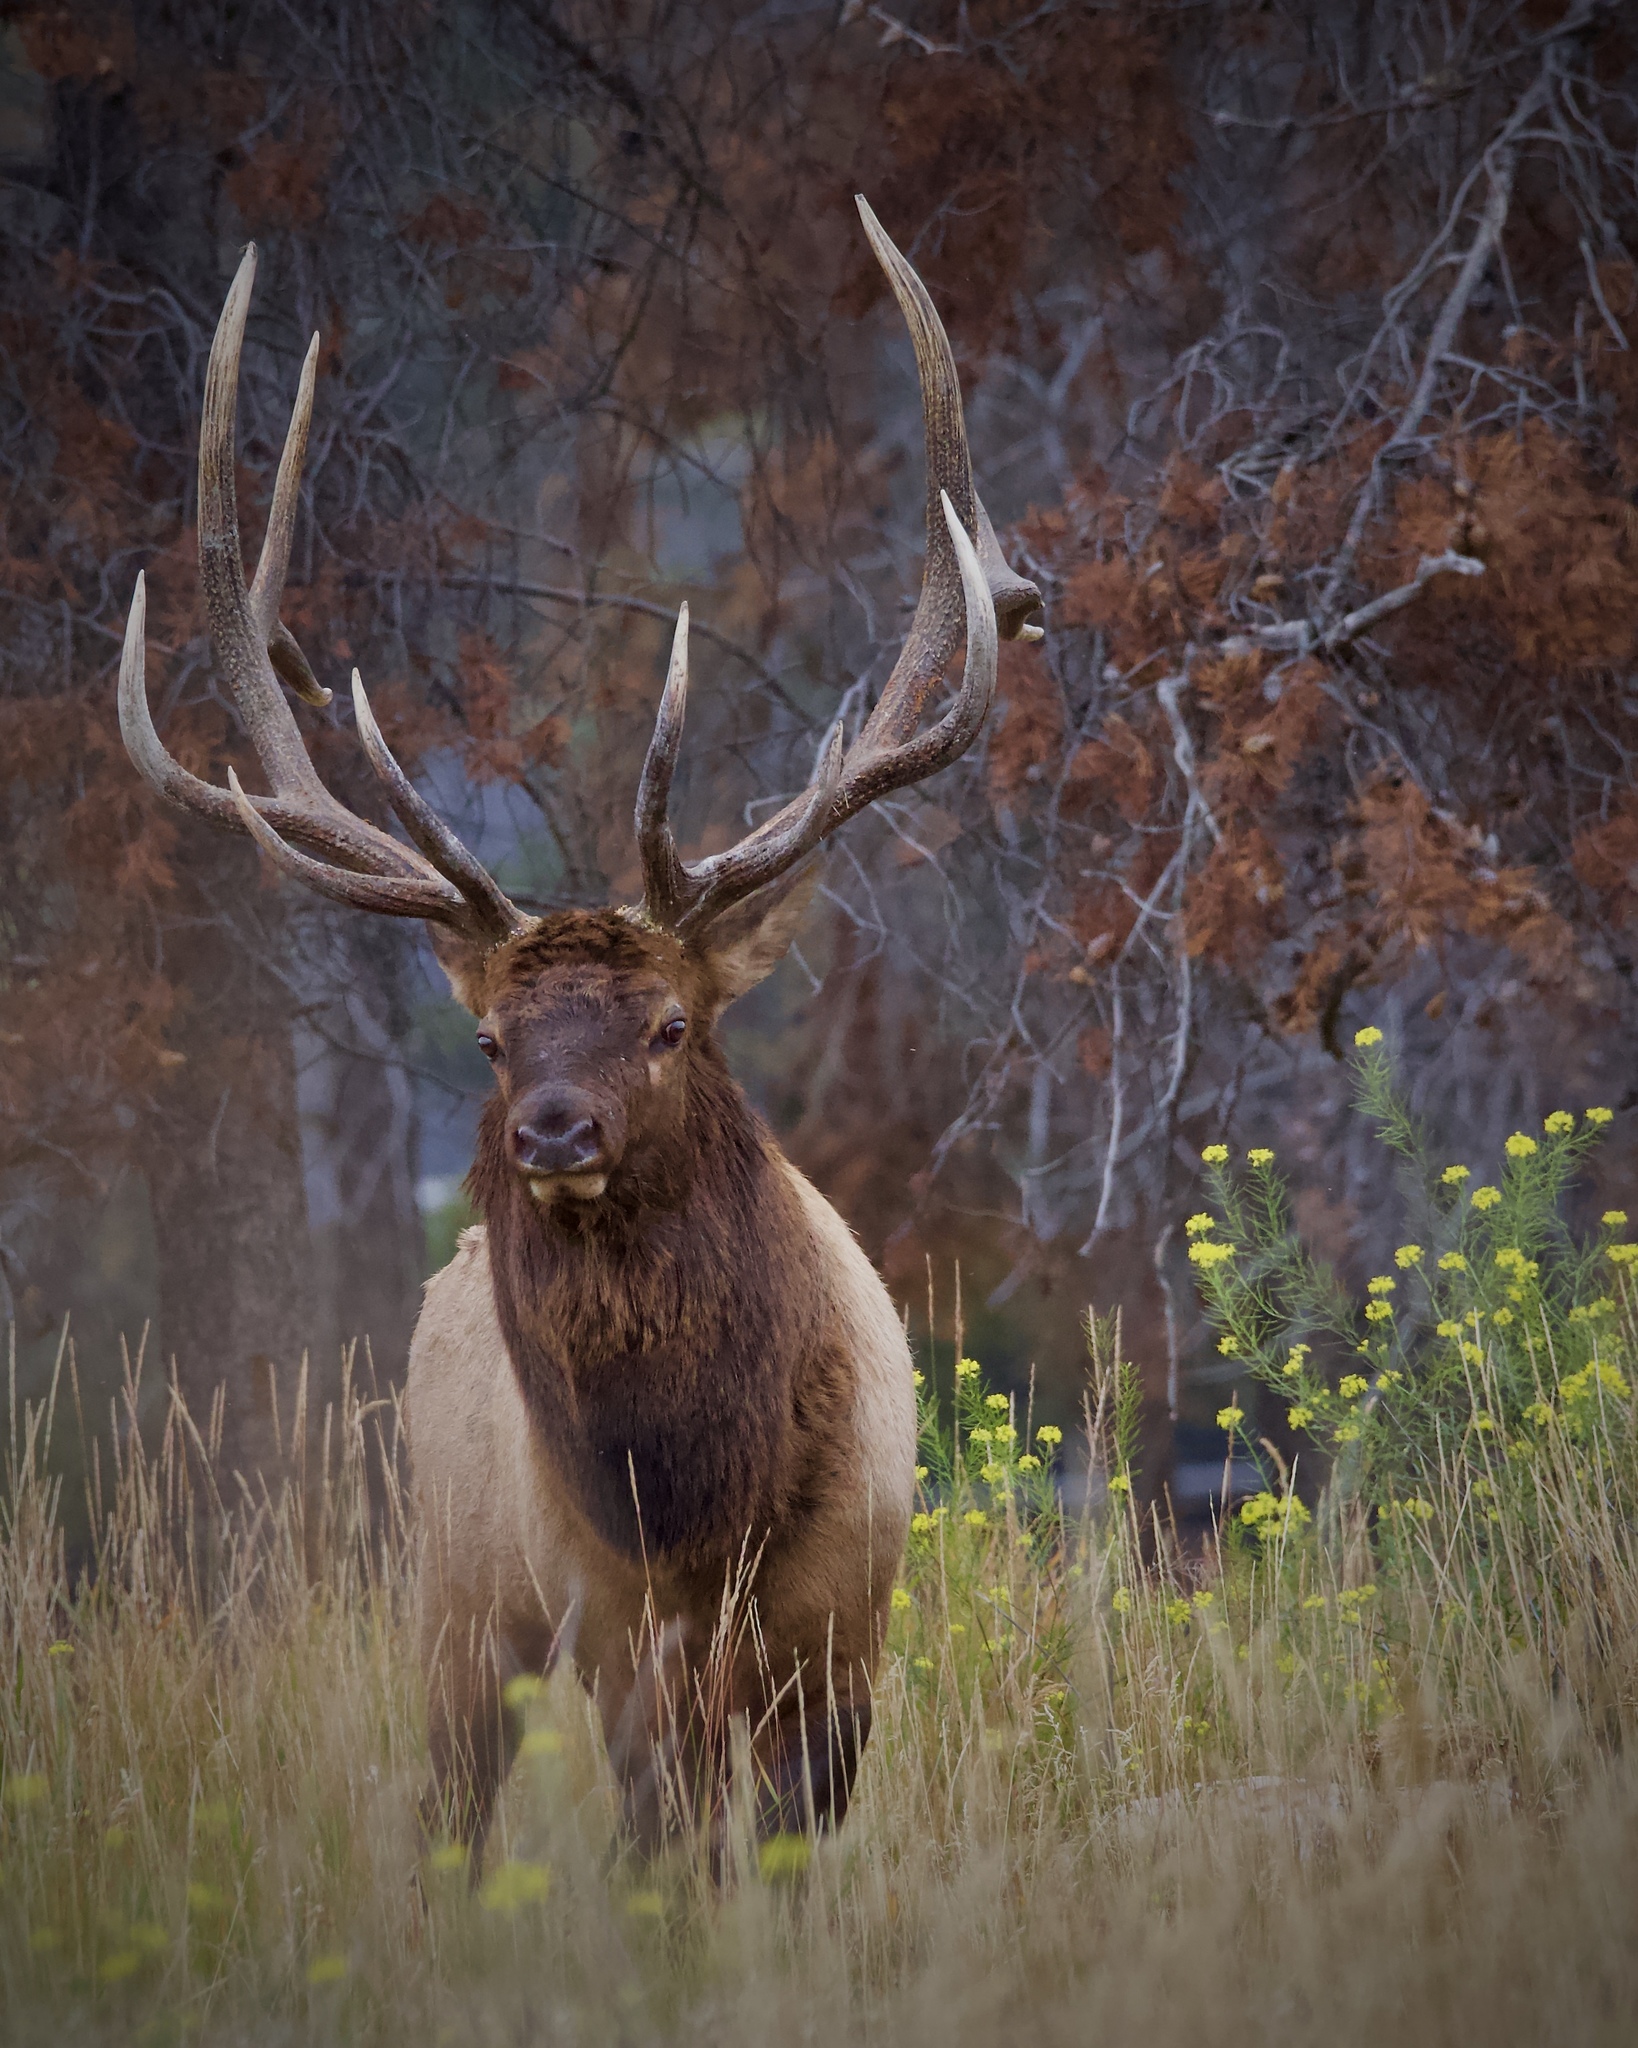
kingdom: Animalia
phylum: Chordata
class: Mammalia
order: Artiodactyla
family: Cervidae
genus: Cervus
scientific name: Cervus elaphus
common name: Red deer
